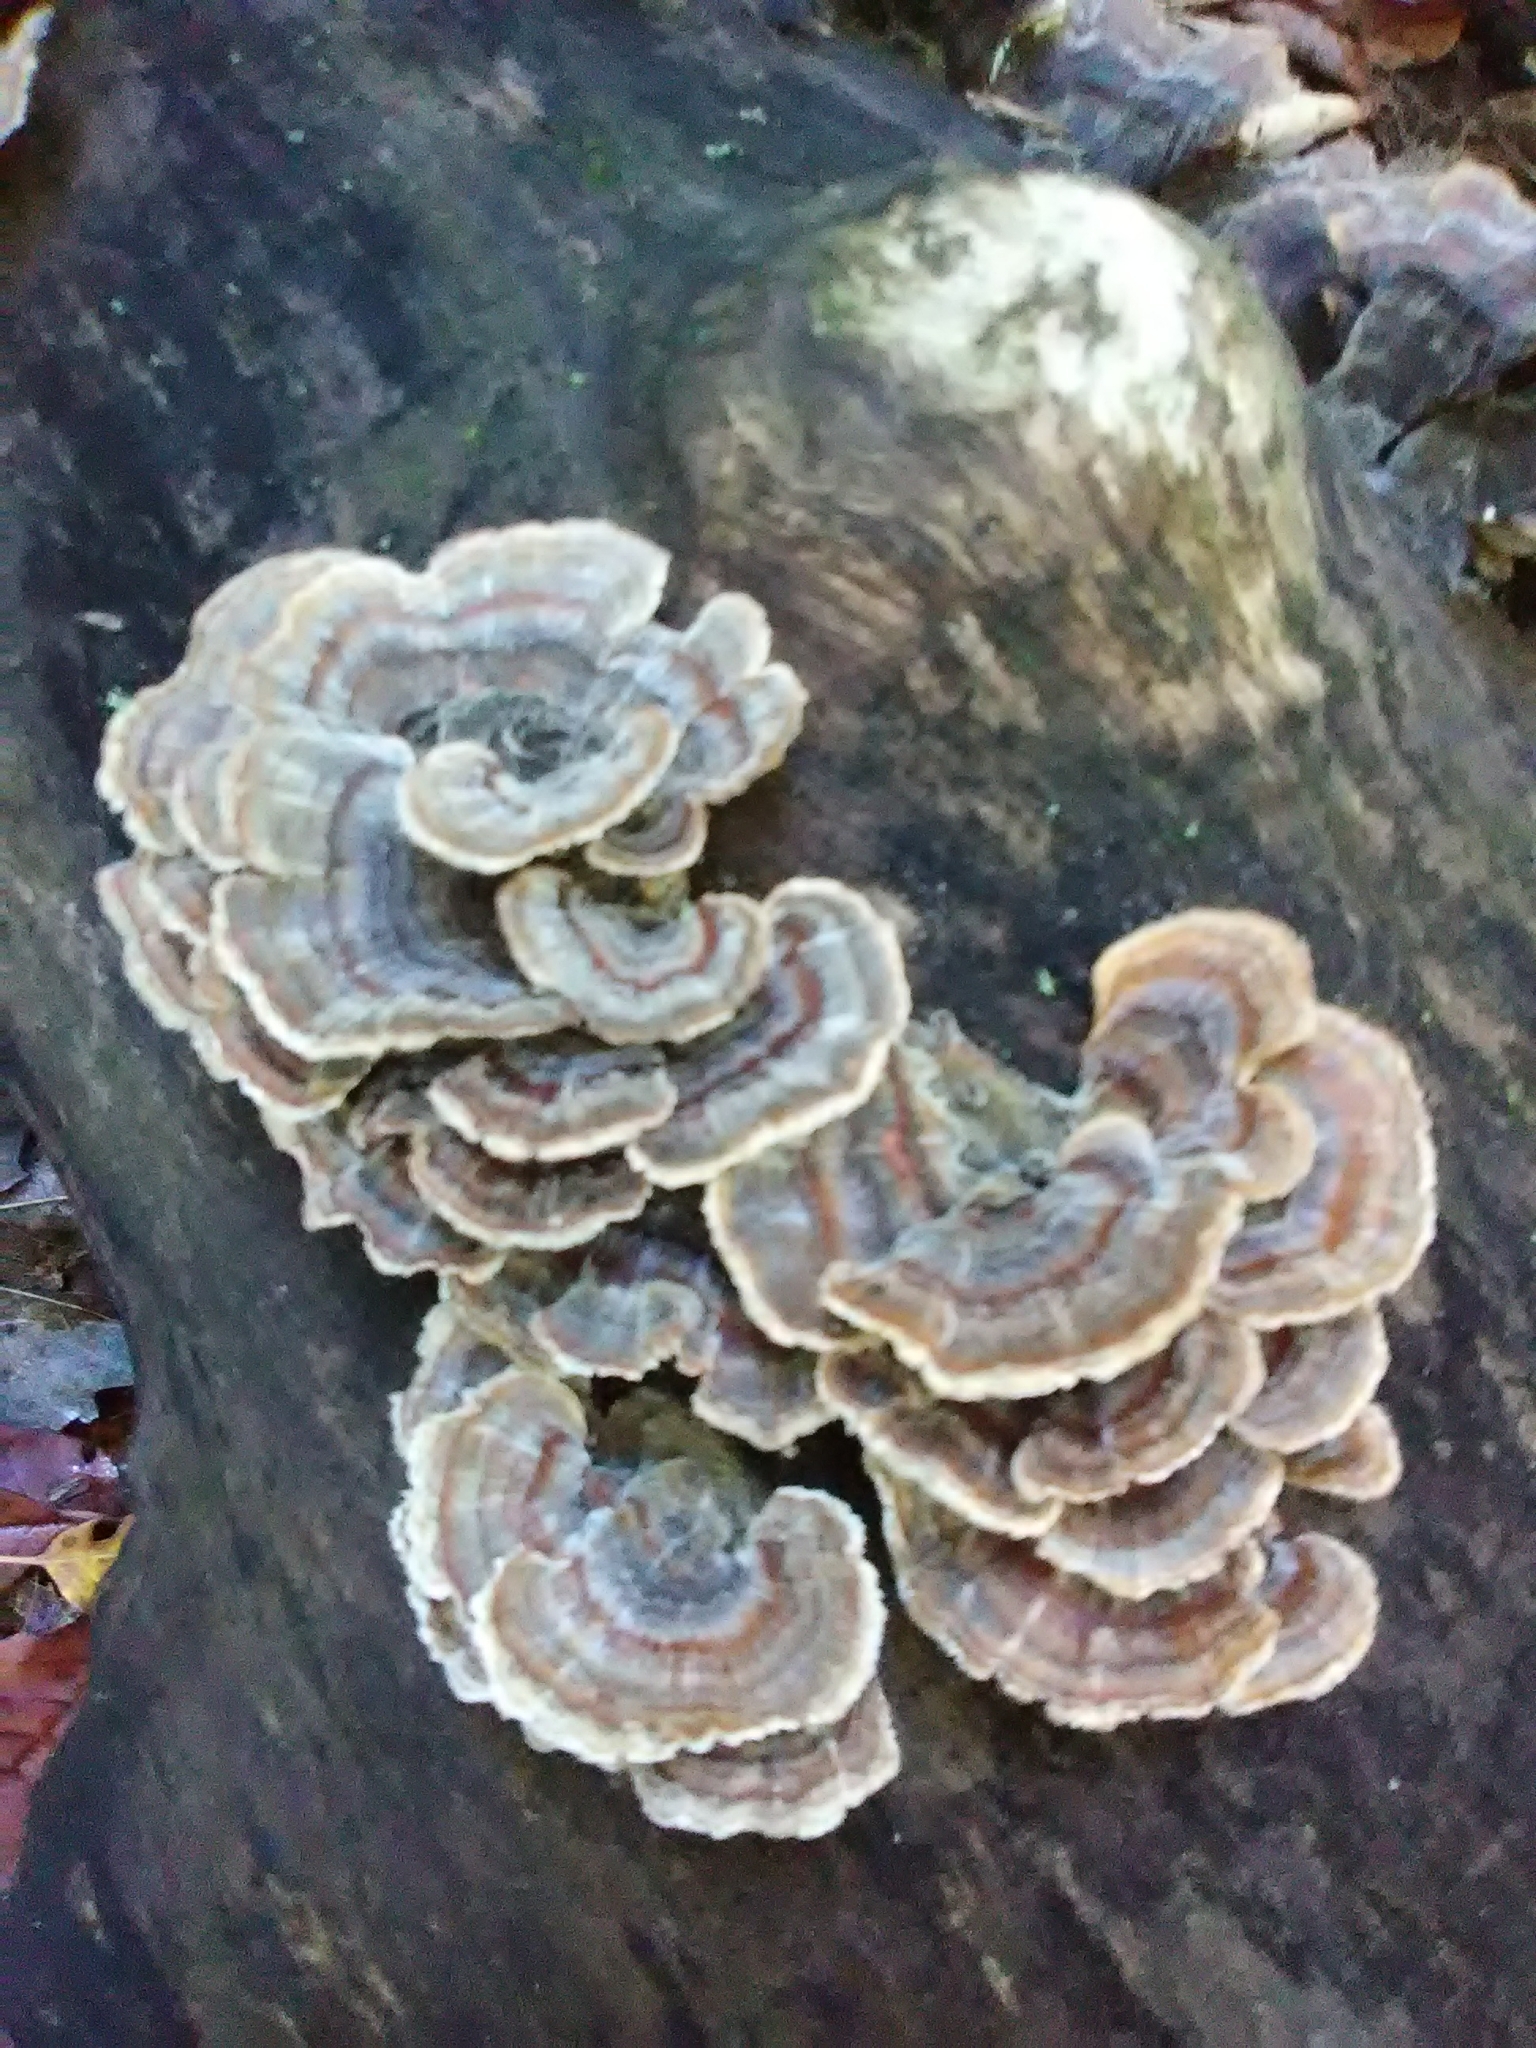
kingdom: Fungi
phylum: Basidiomycota
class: Agaricomycetes
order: Polyporales
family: Polyporaceae
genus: Trametes
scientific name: Trametes versicolor
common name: Turkeytail
